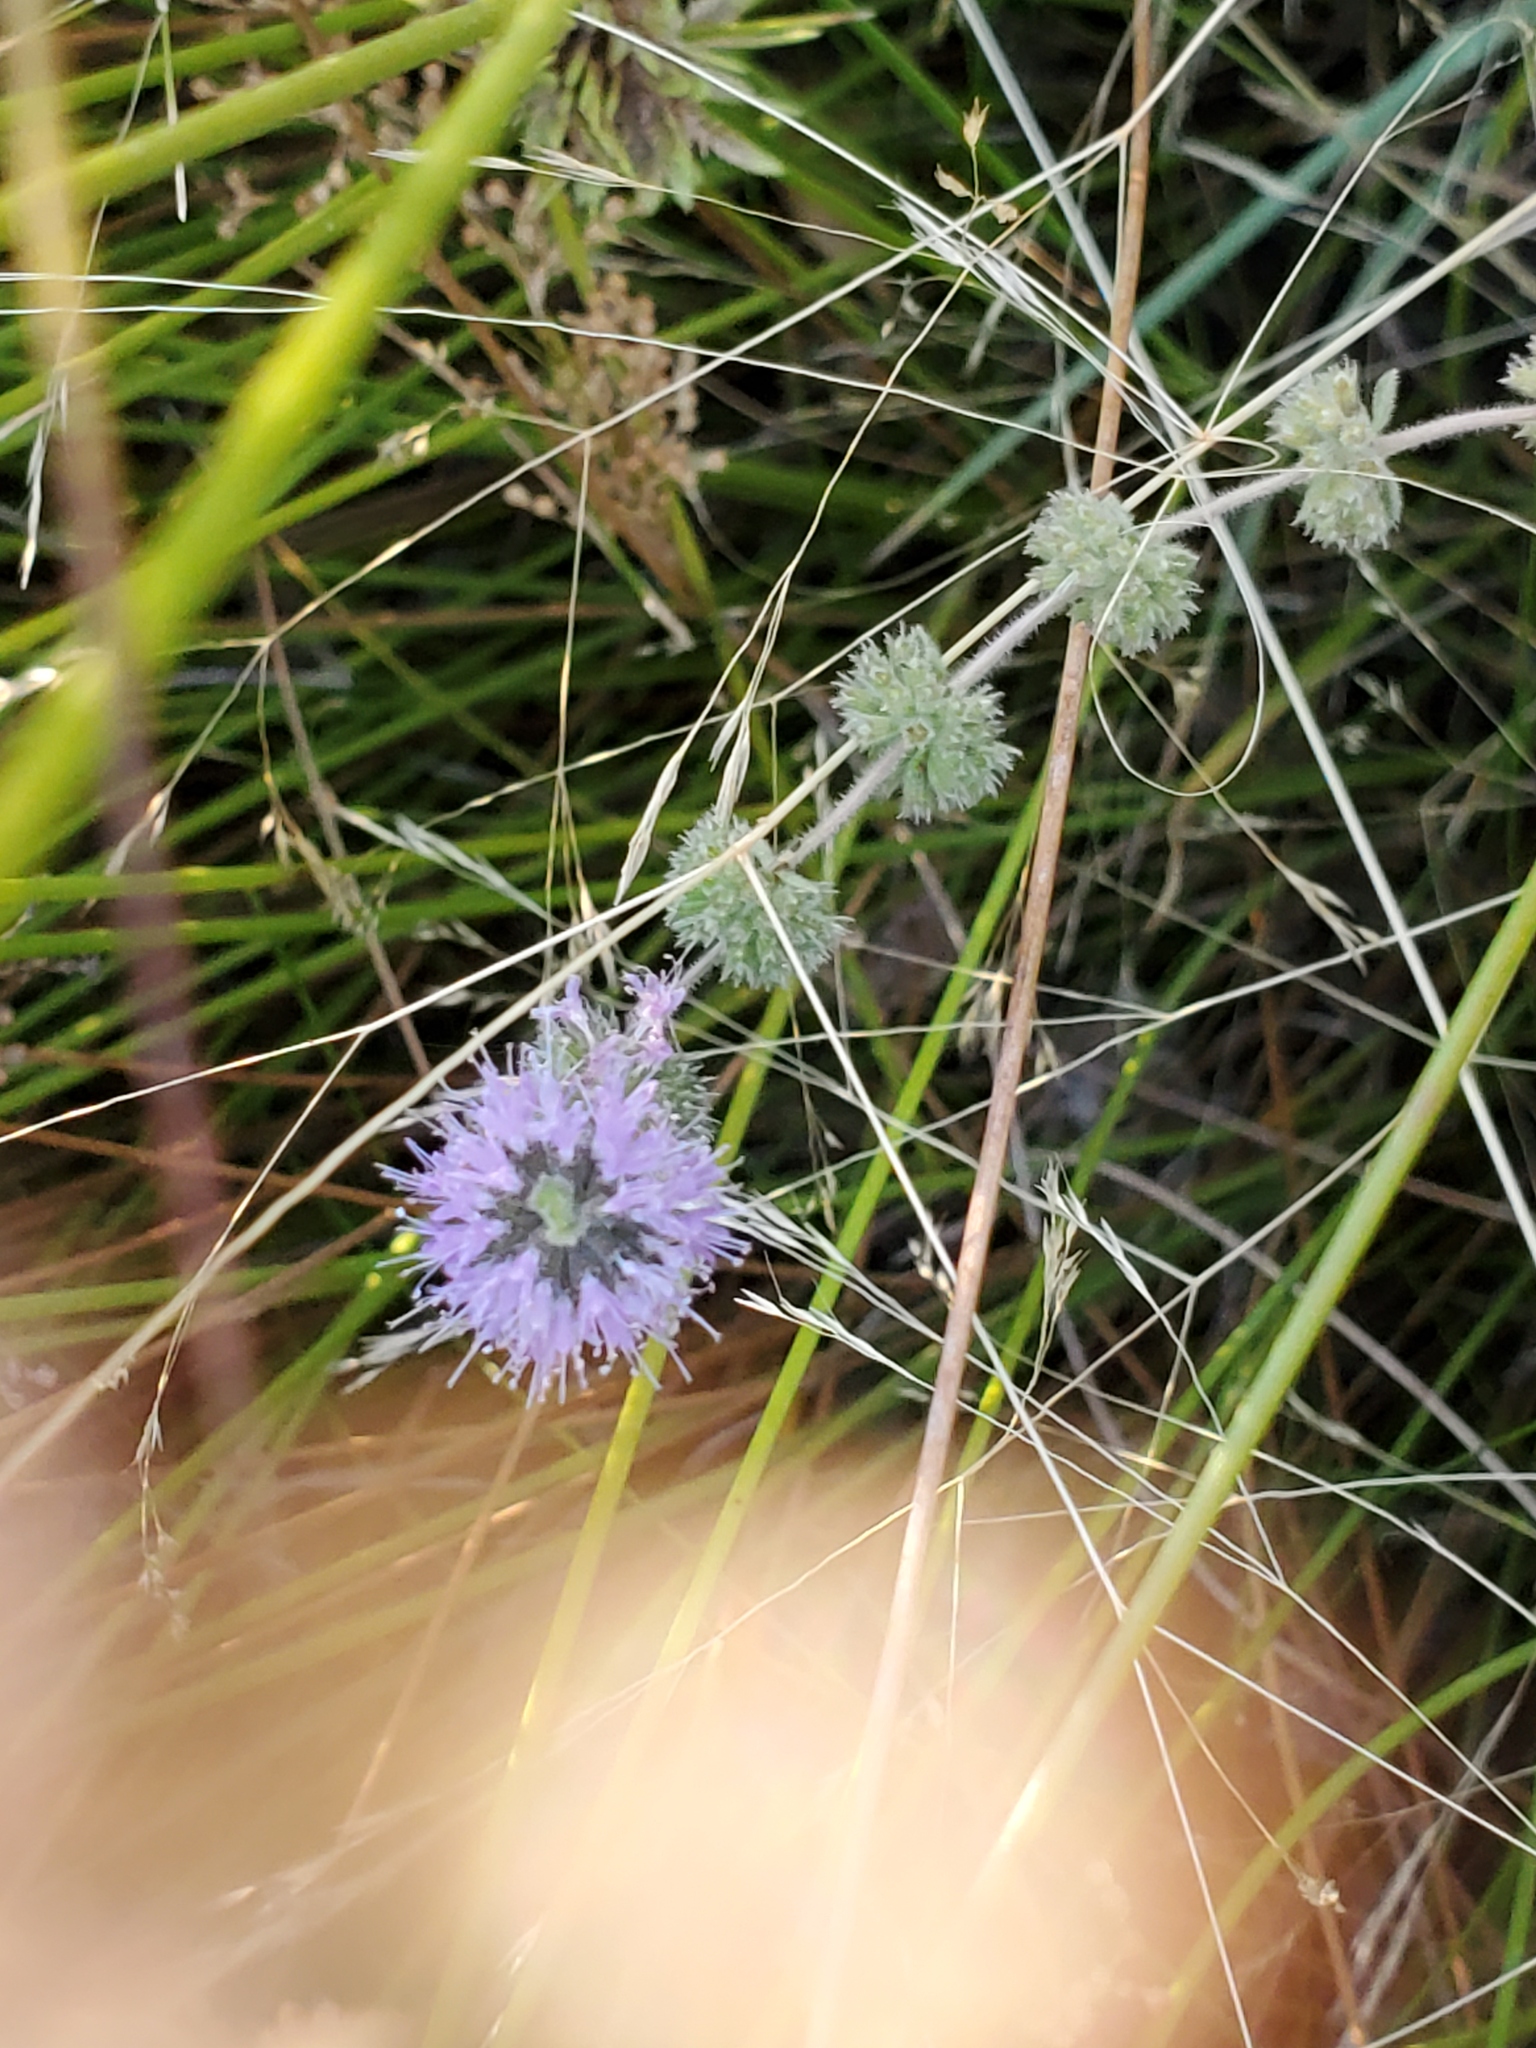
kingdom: Plantae
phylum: Tracheophyta
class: Magnoliopsida
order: Lamiales
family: Lamiaceae
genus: Mentha
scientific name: Mentha pulegium
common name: Pennyroyal
